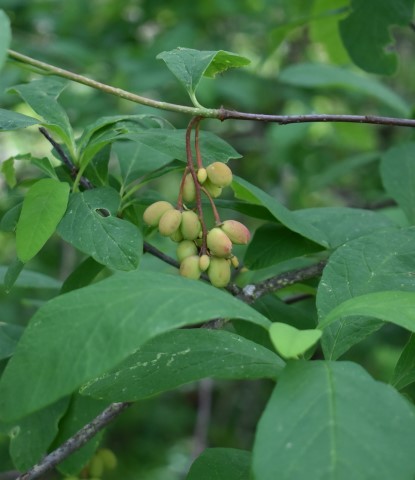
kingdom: Plantae
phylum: Tracheophyta
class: Magnoliopsida
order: Rosales
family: Rosaceae
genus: Oemleria
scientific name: Oemleria cerasiformis
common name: Osoberry
